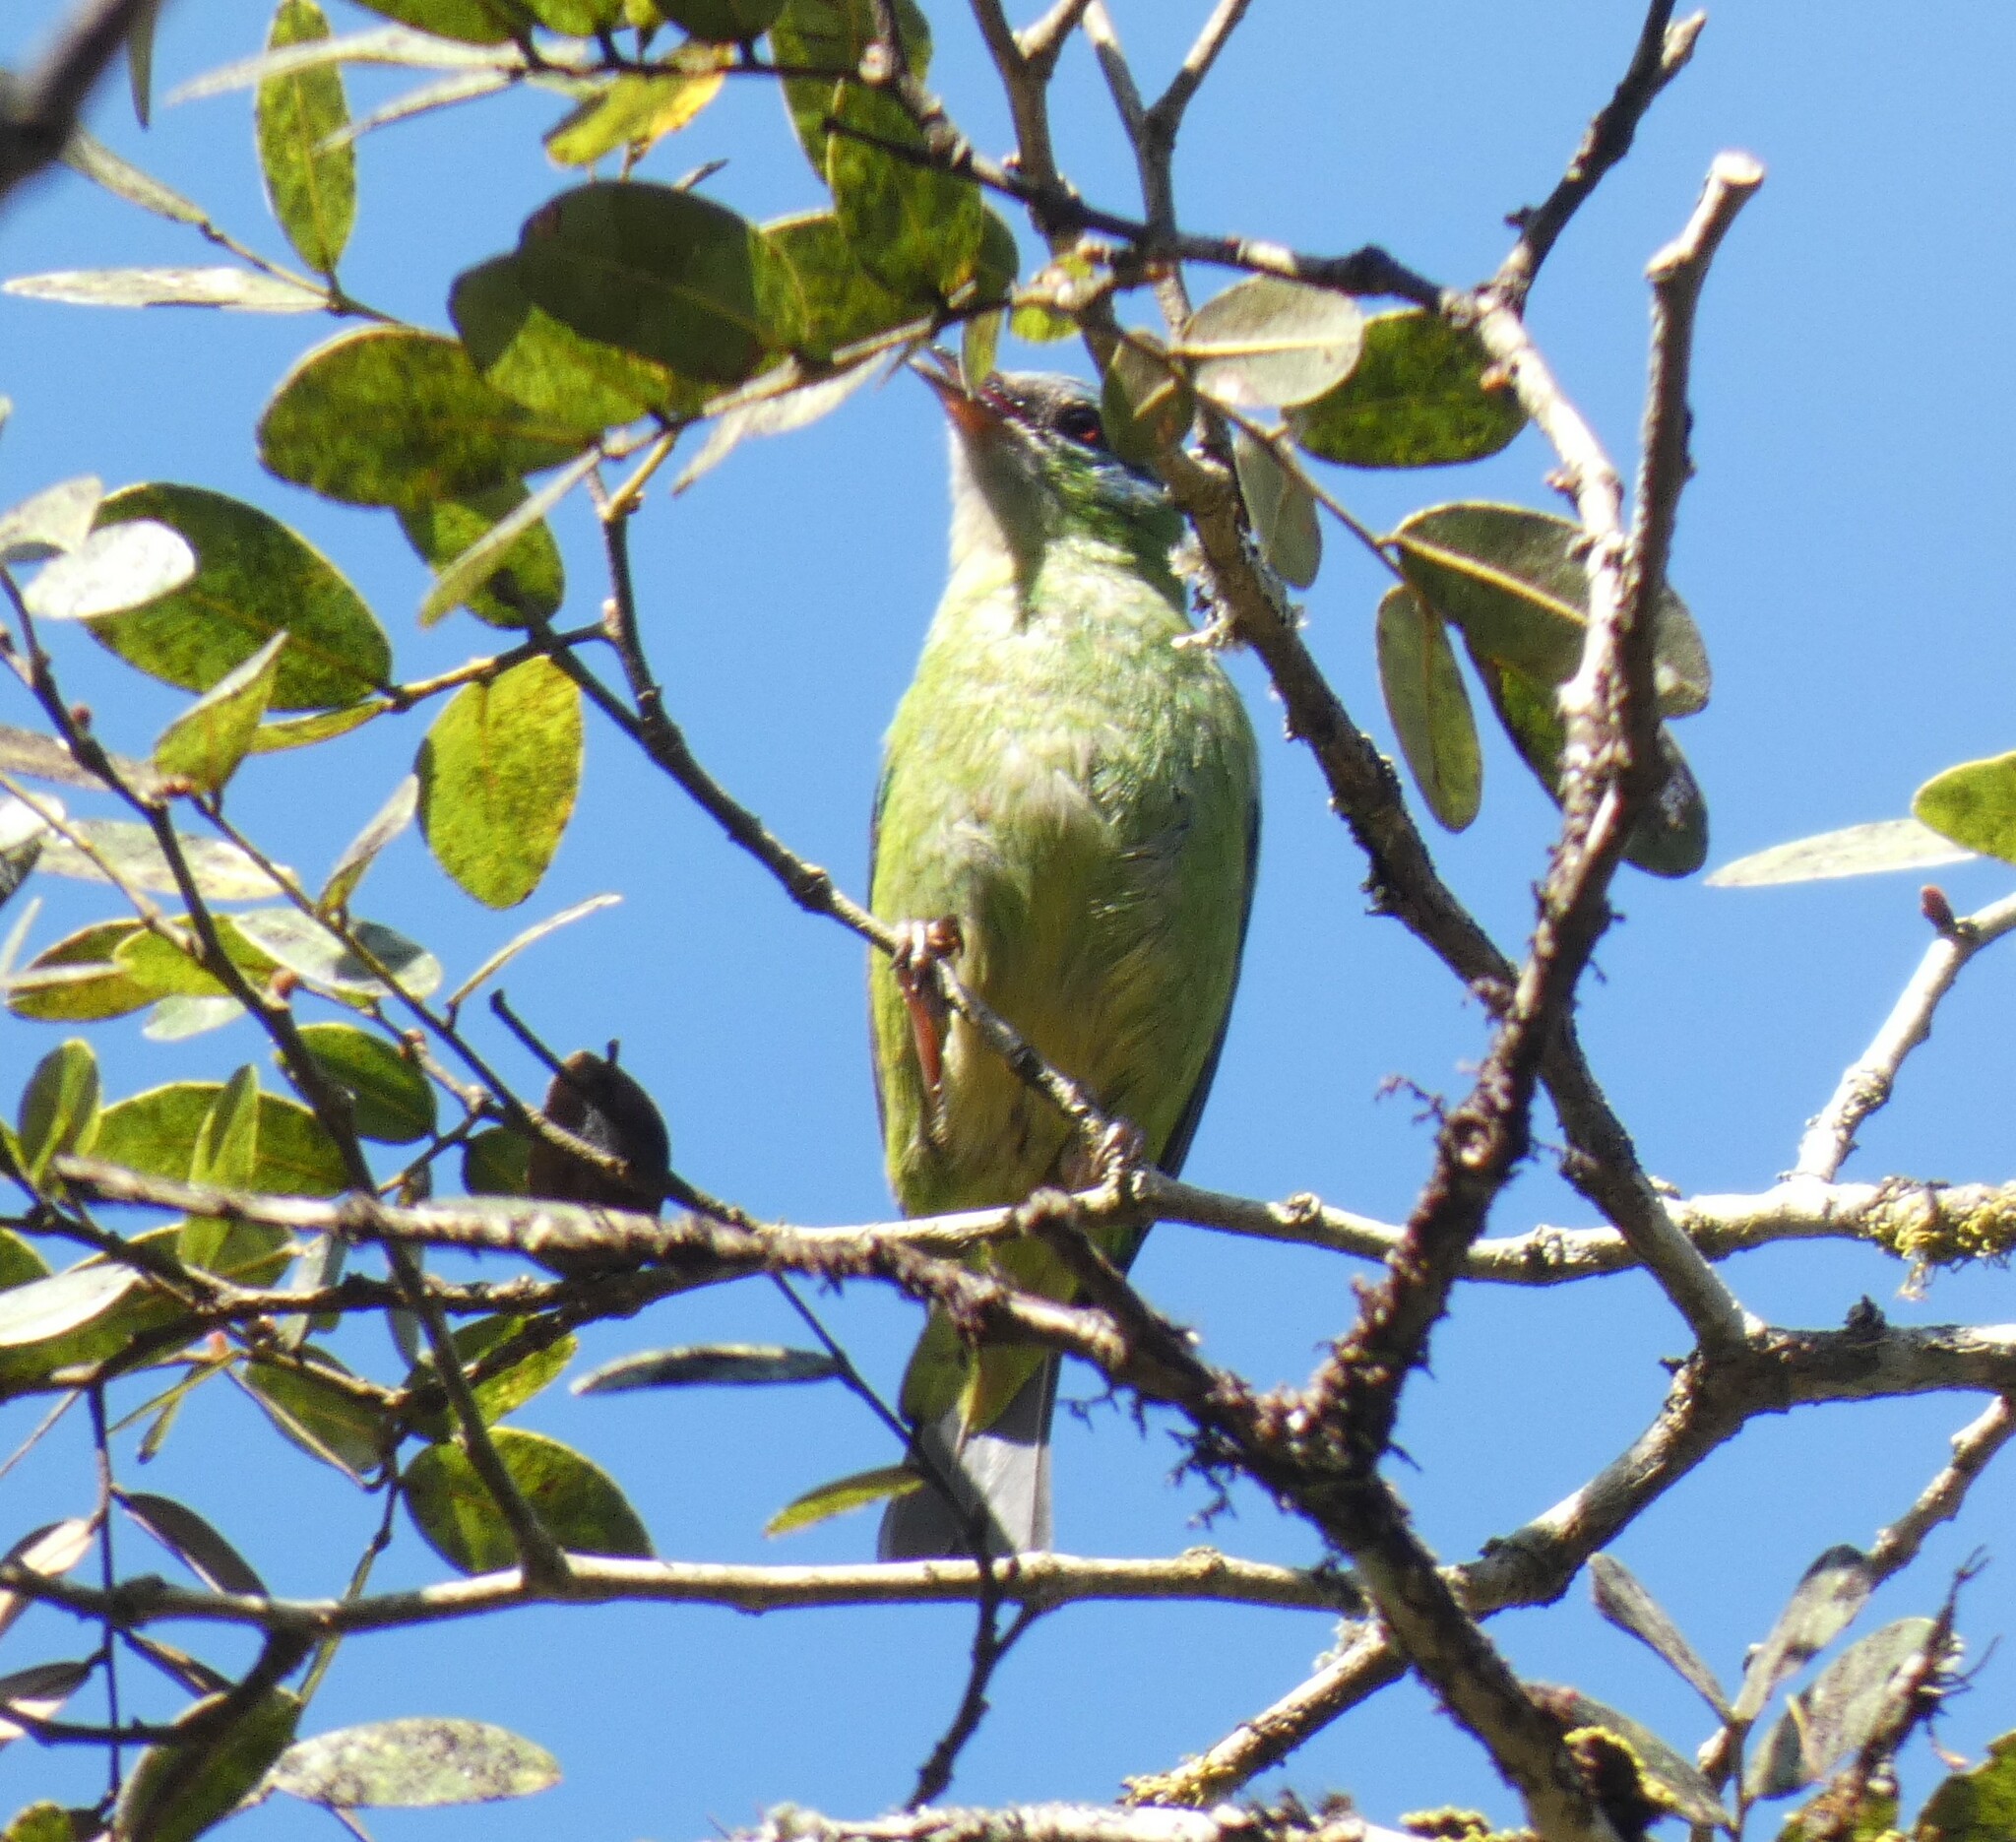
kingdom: Animalia
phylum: Chordata
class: Aves
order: Passeriformes
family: Thraupidae
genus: Dacnis
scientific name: Dacnis cayana
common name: Blue dacnis
